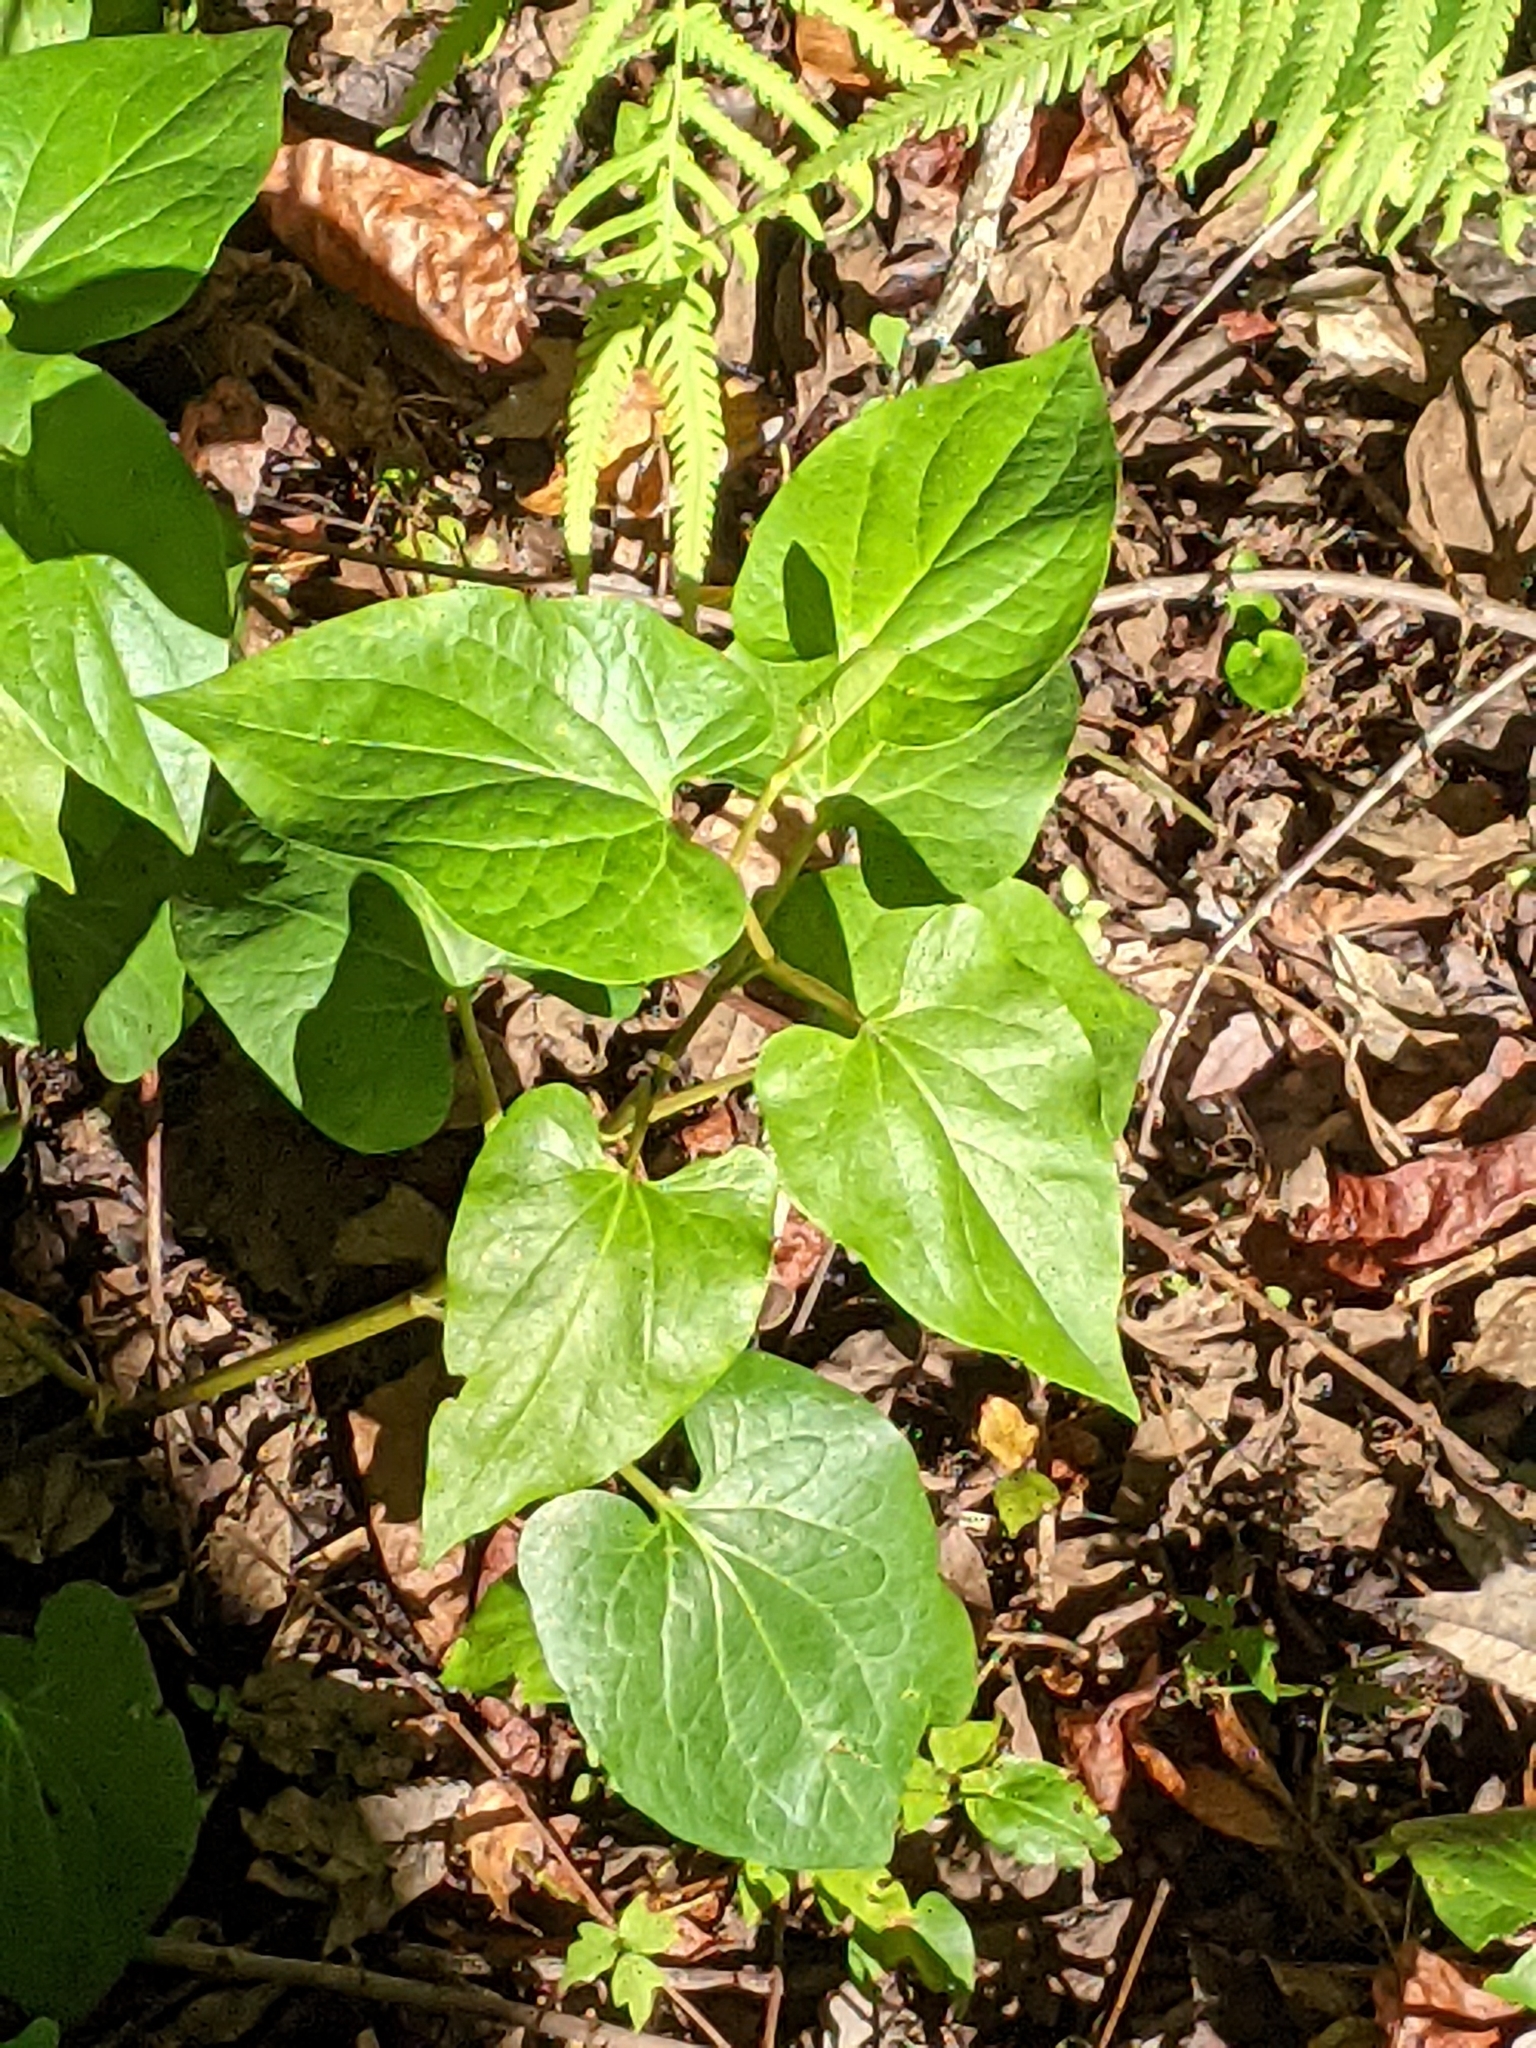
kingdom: Plantae
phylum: Tracheophyta
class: Magnoliopsida
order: Piperales
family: Saururaceae
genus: Saururus
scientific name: Saururus cernuus
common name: Lizard's-tail
